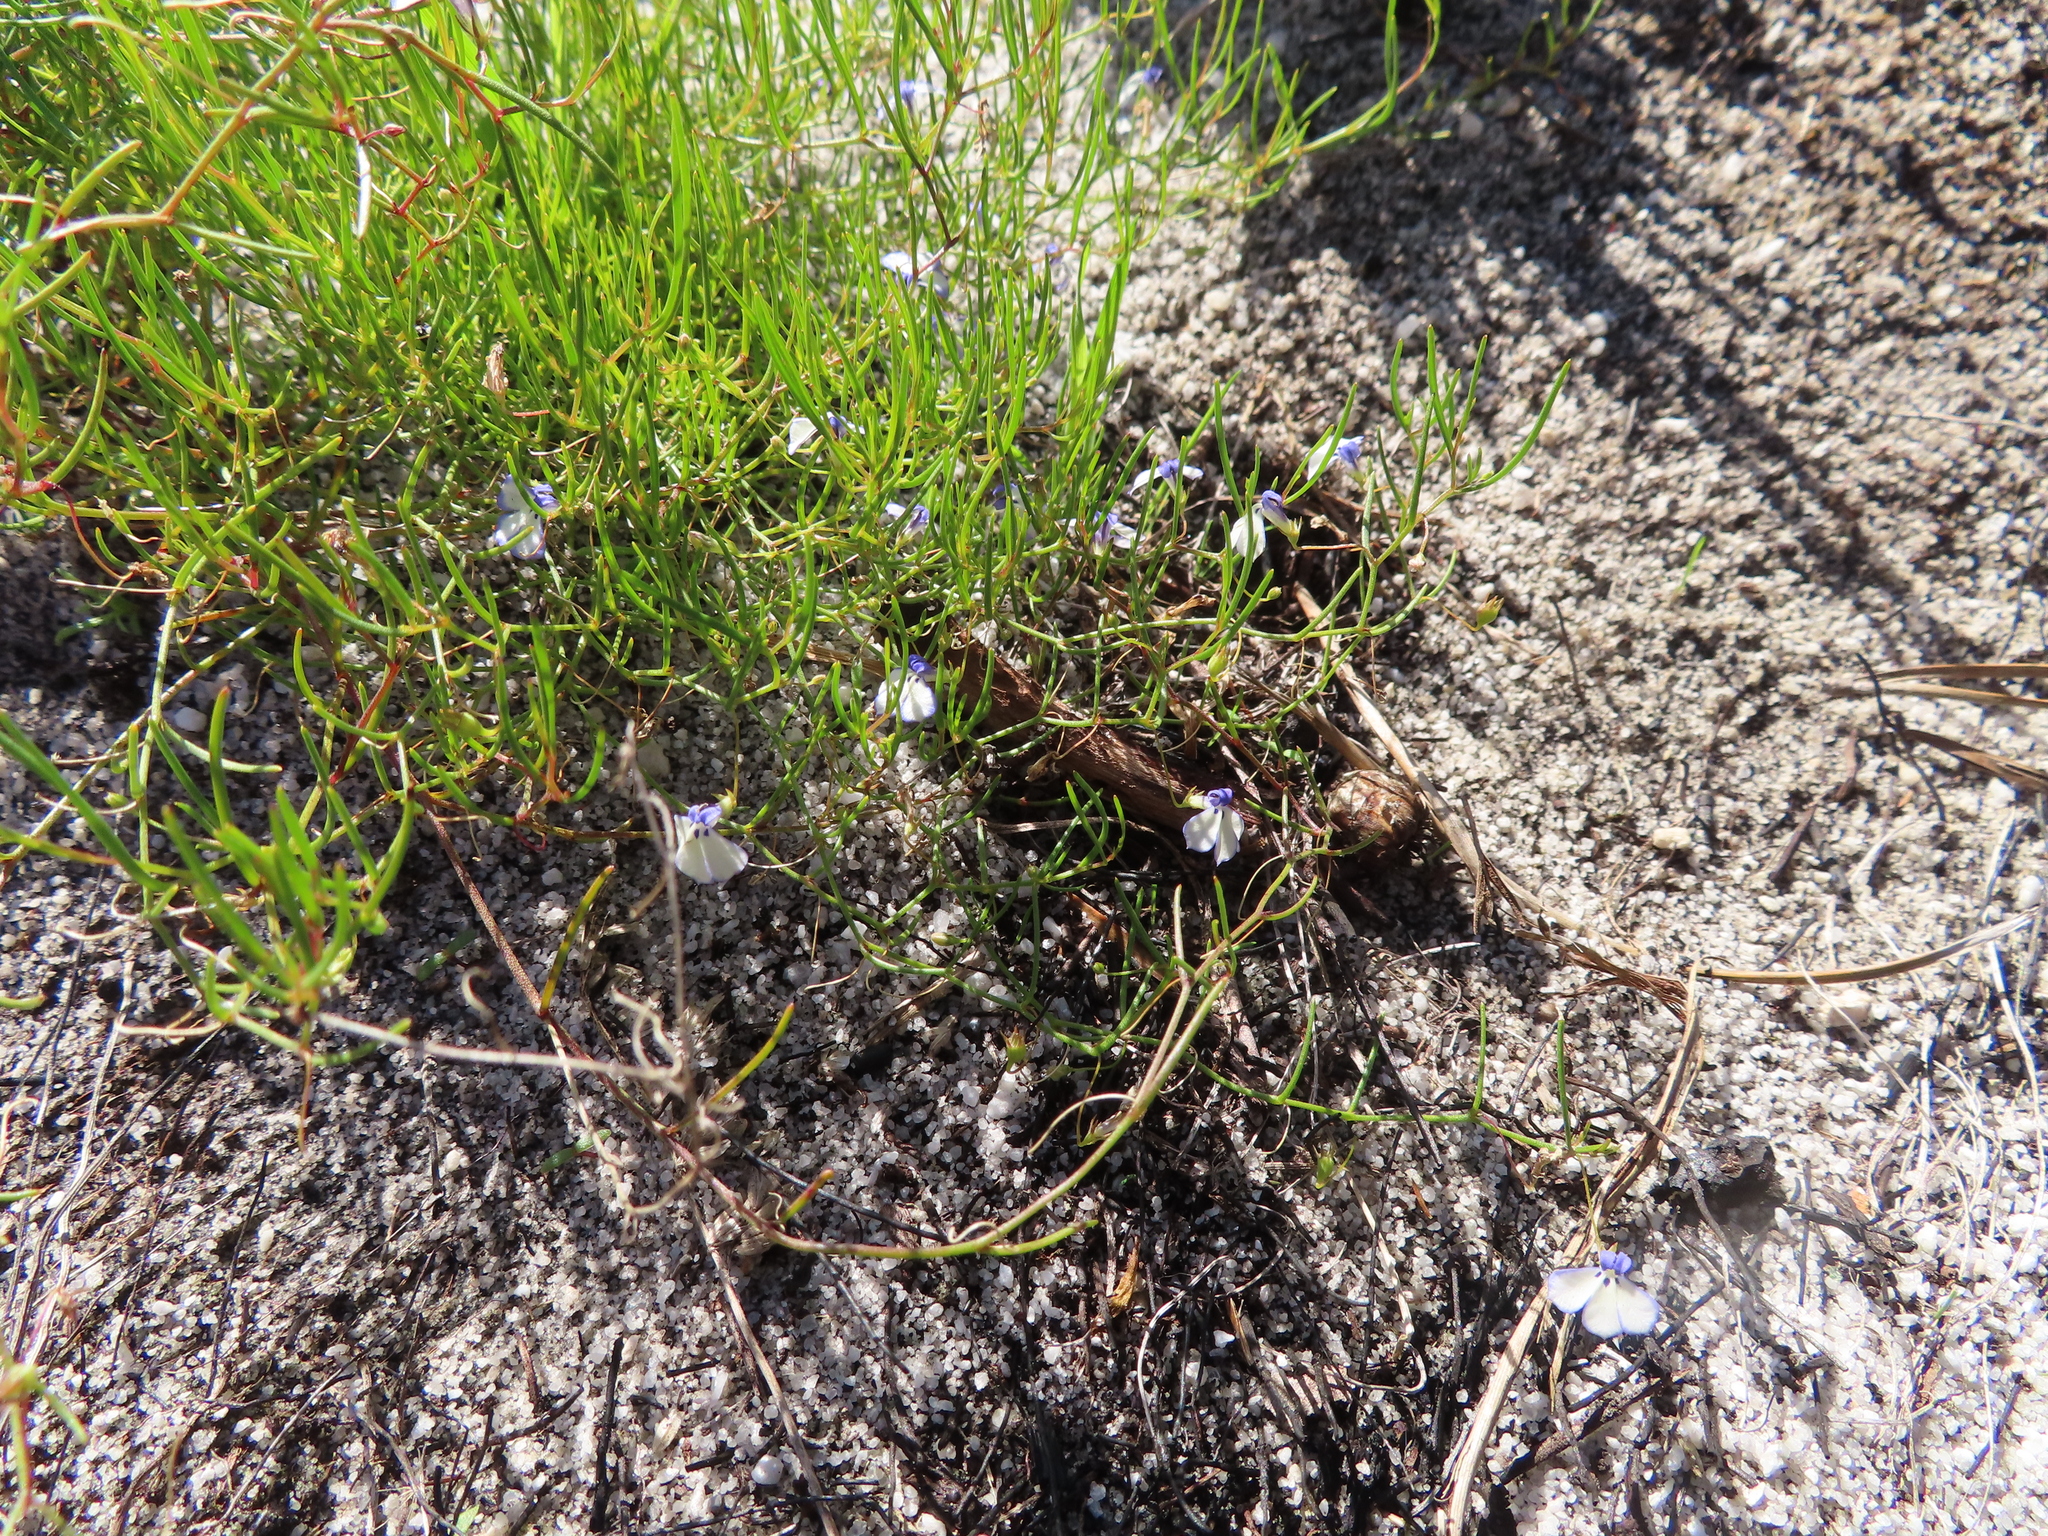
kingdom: Plantae
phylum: Tracheophyta
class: Magnoliopsida
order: Asterales
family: Campanulaceae
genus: Lobelia
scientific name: Lobelia setacea
